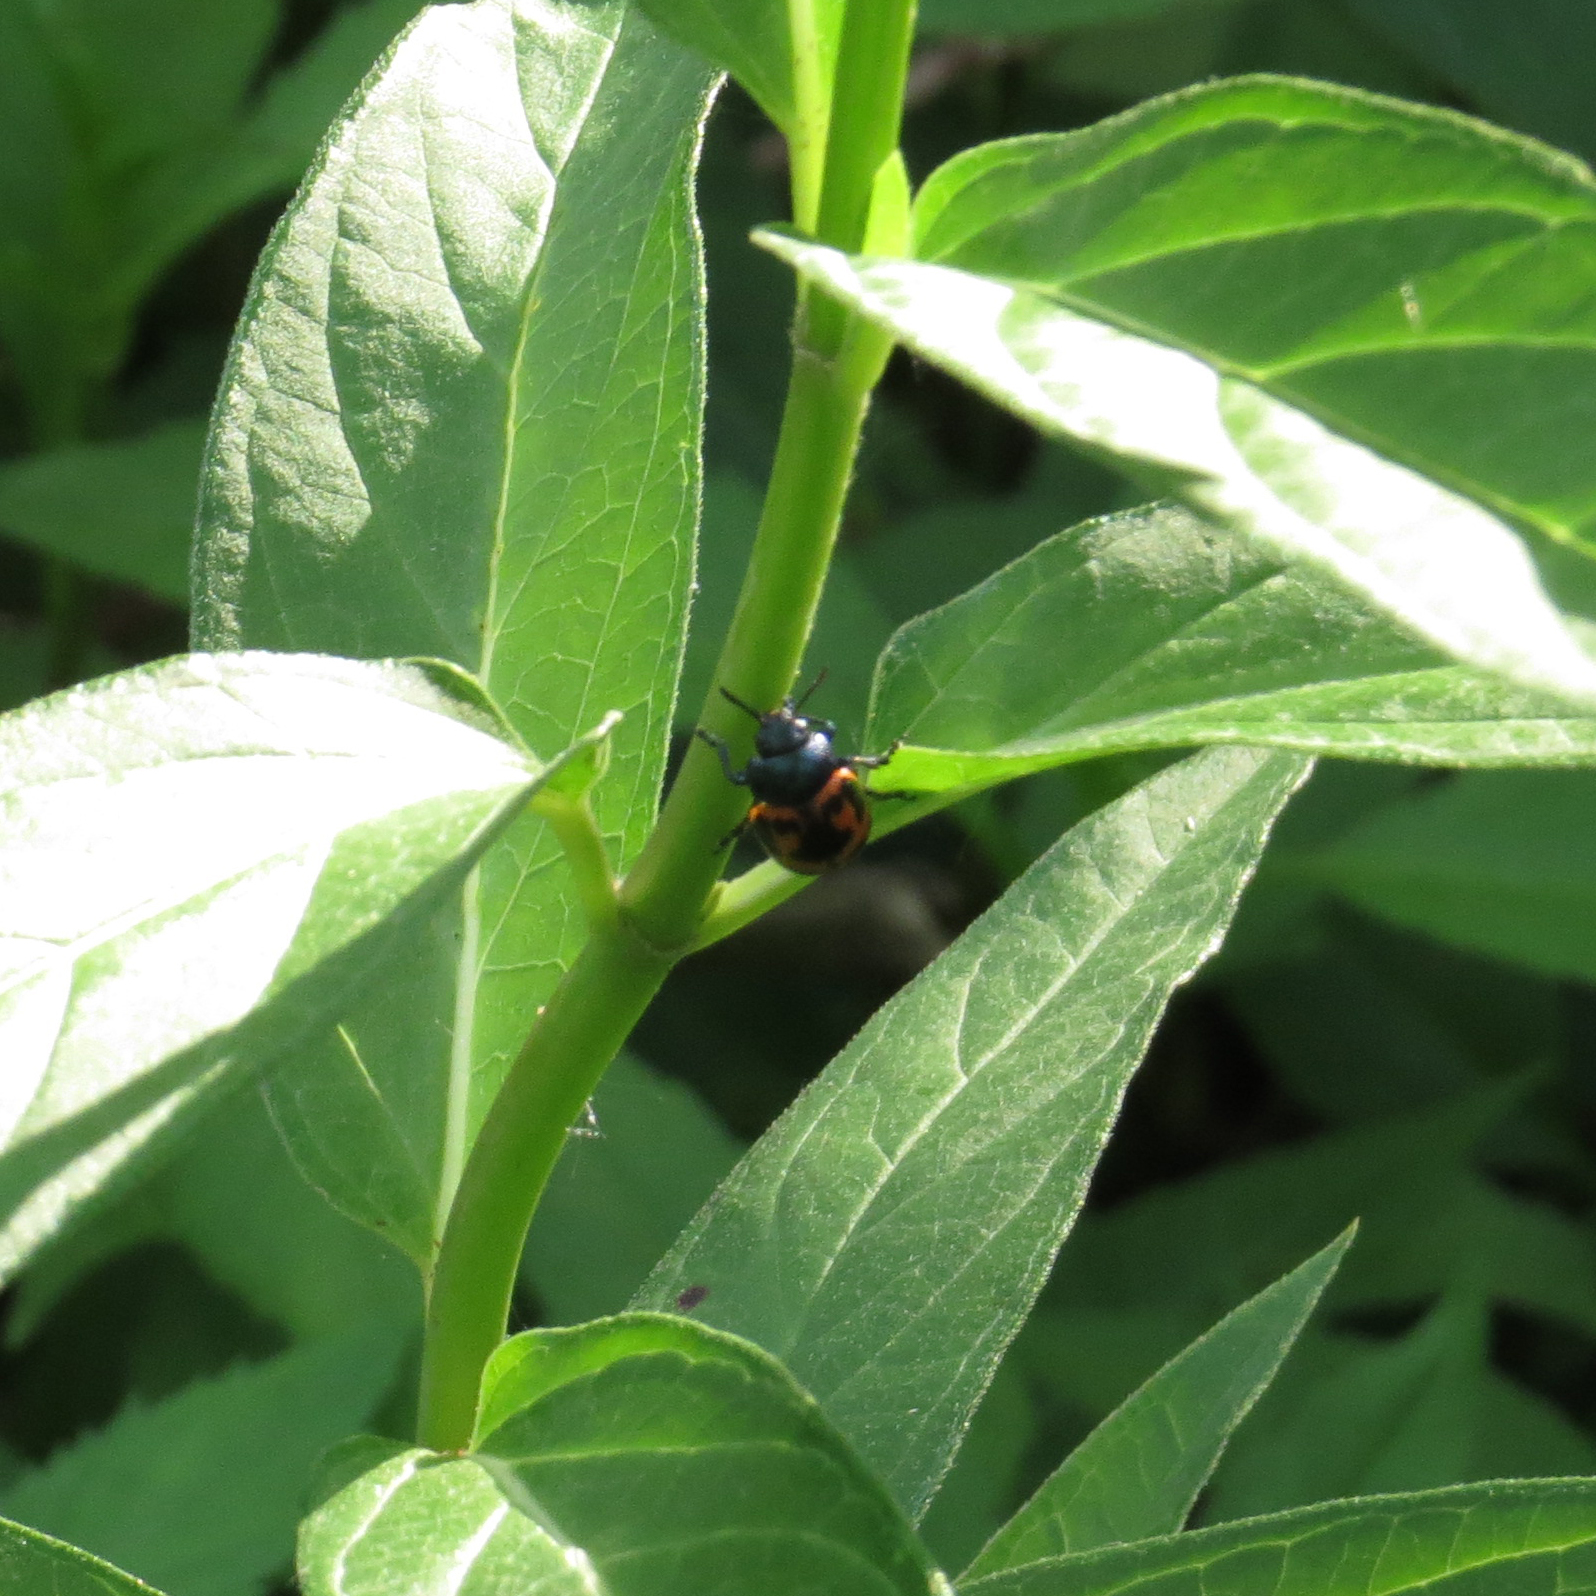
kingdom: Animalia
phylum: Arthropoda
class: Insecta
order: Coleoptera
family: Chrysomelidae
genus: Labidomera
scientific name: Labidomera clivicollis
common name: Swamp milkweed leaf beetle
